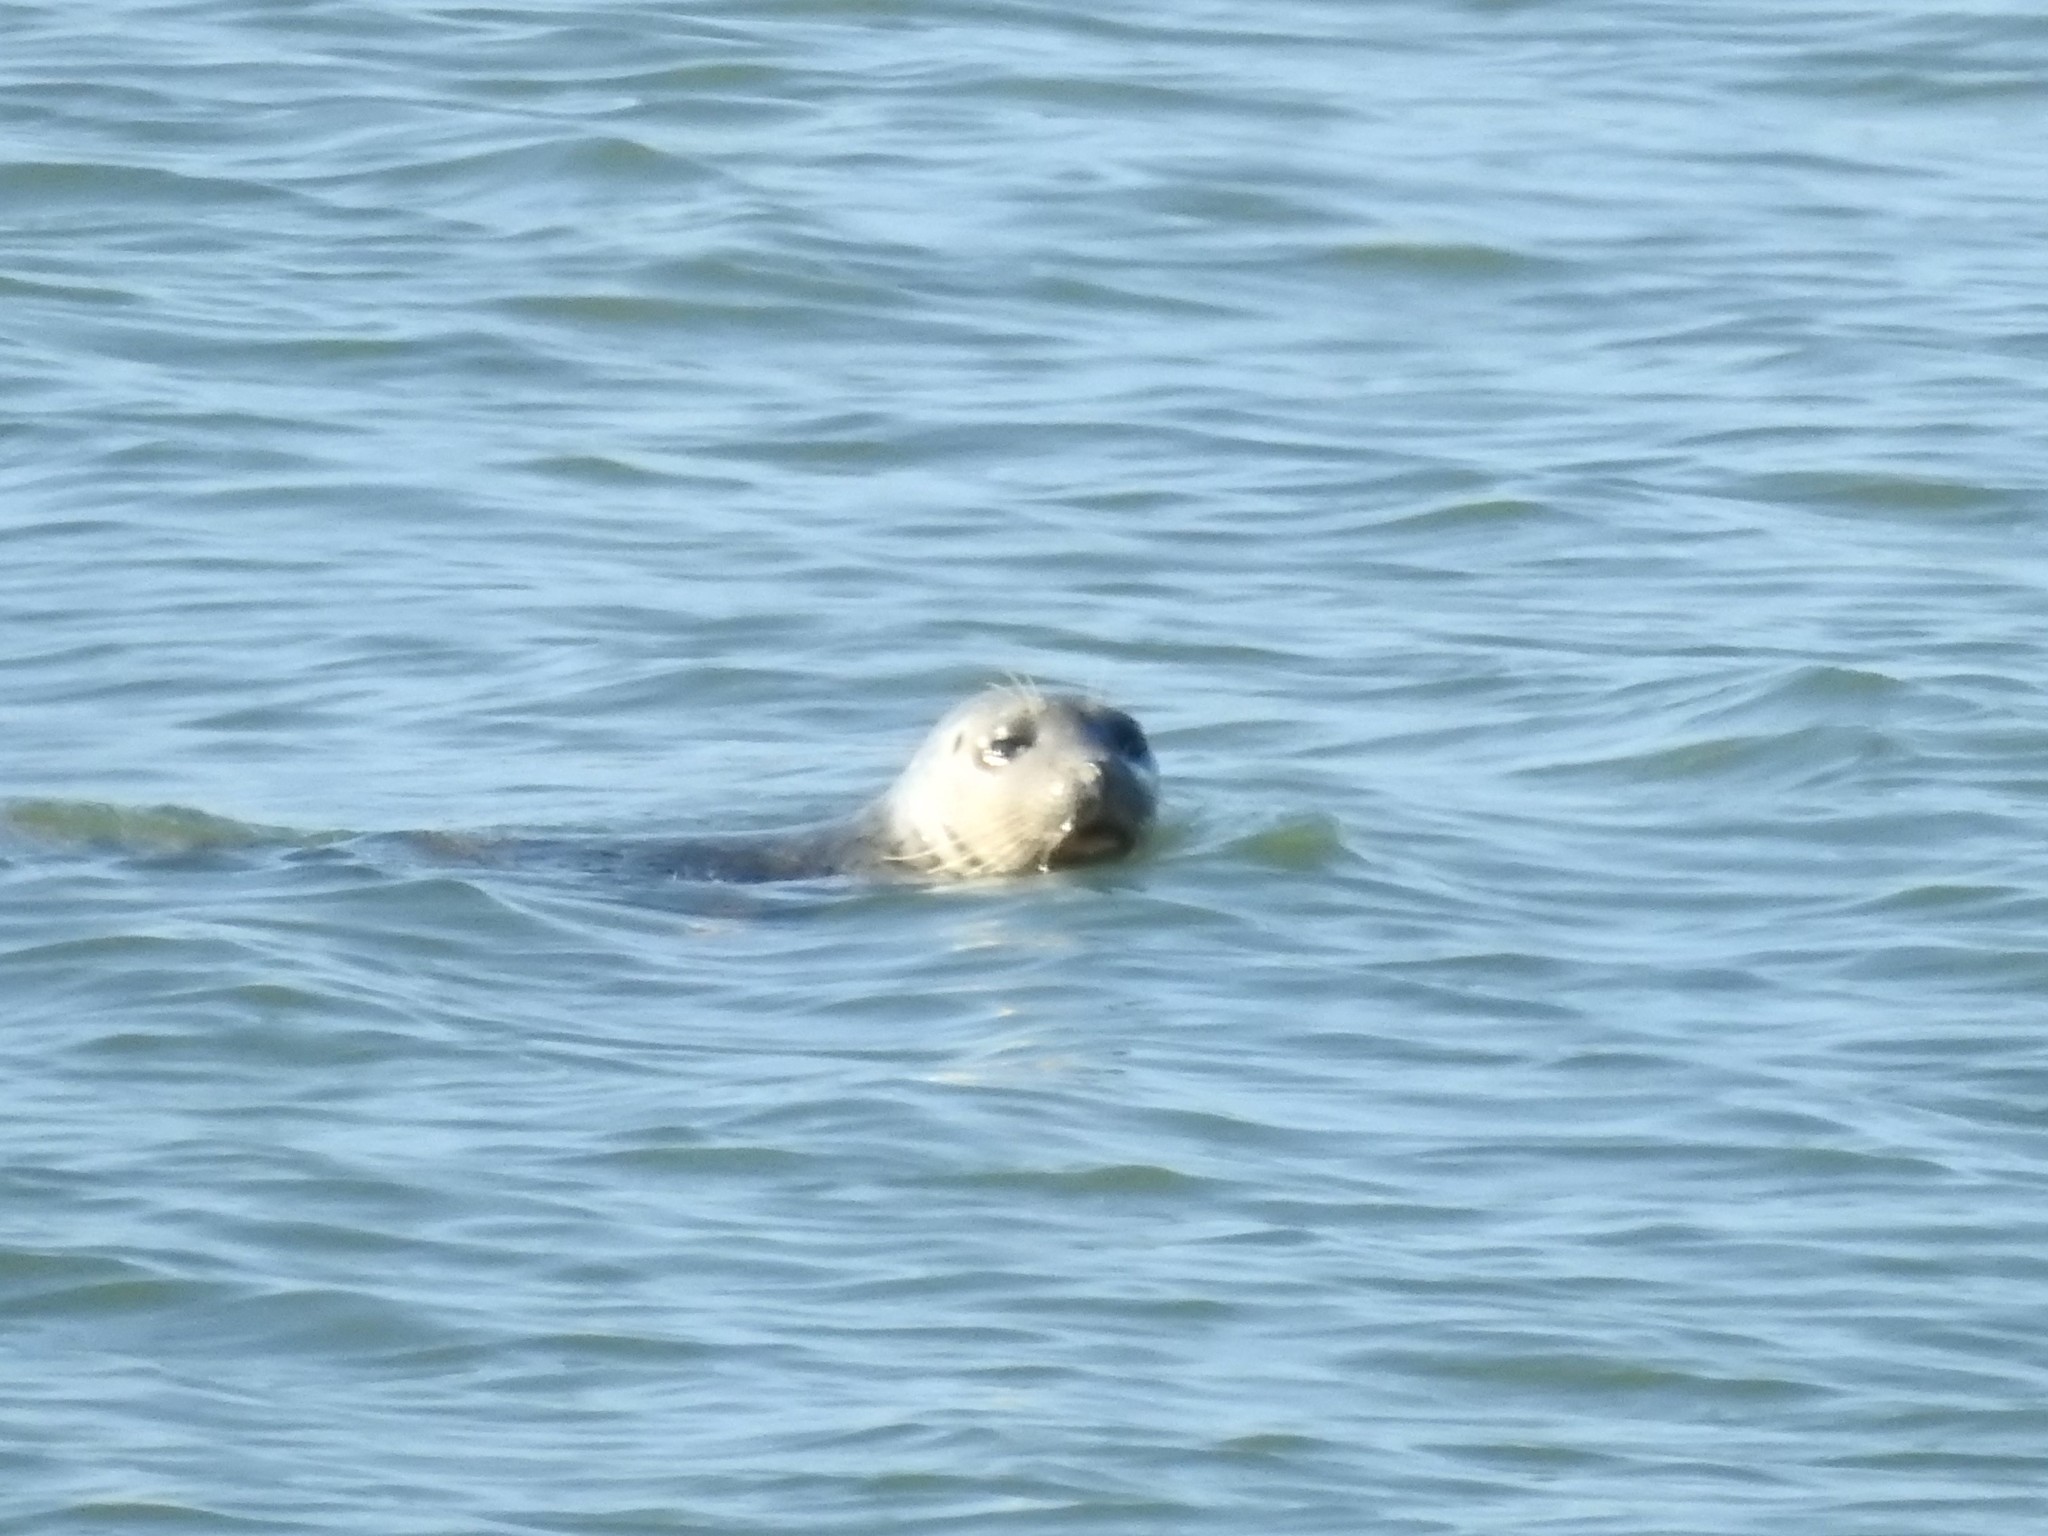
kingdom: Animalia
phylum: Chordata
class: Mammalia
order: Carnivora
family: Phocidae
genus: Phoca
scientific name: Phoca vitulina
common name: Harbor seal
